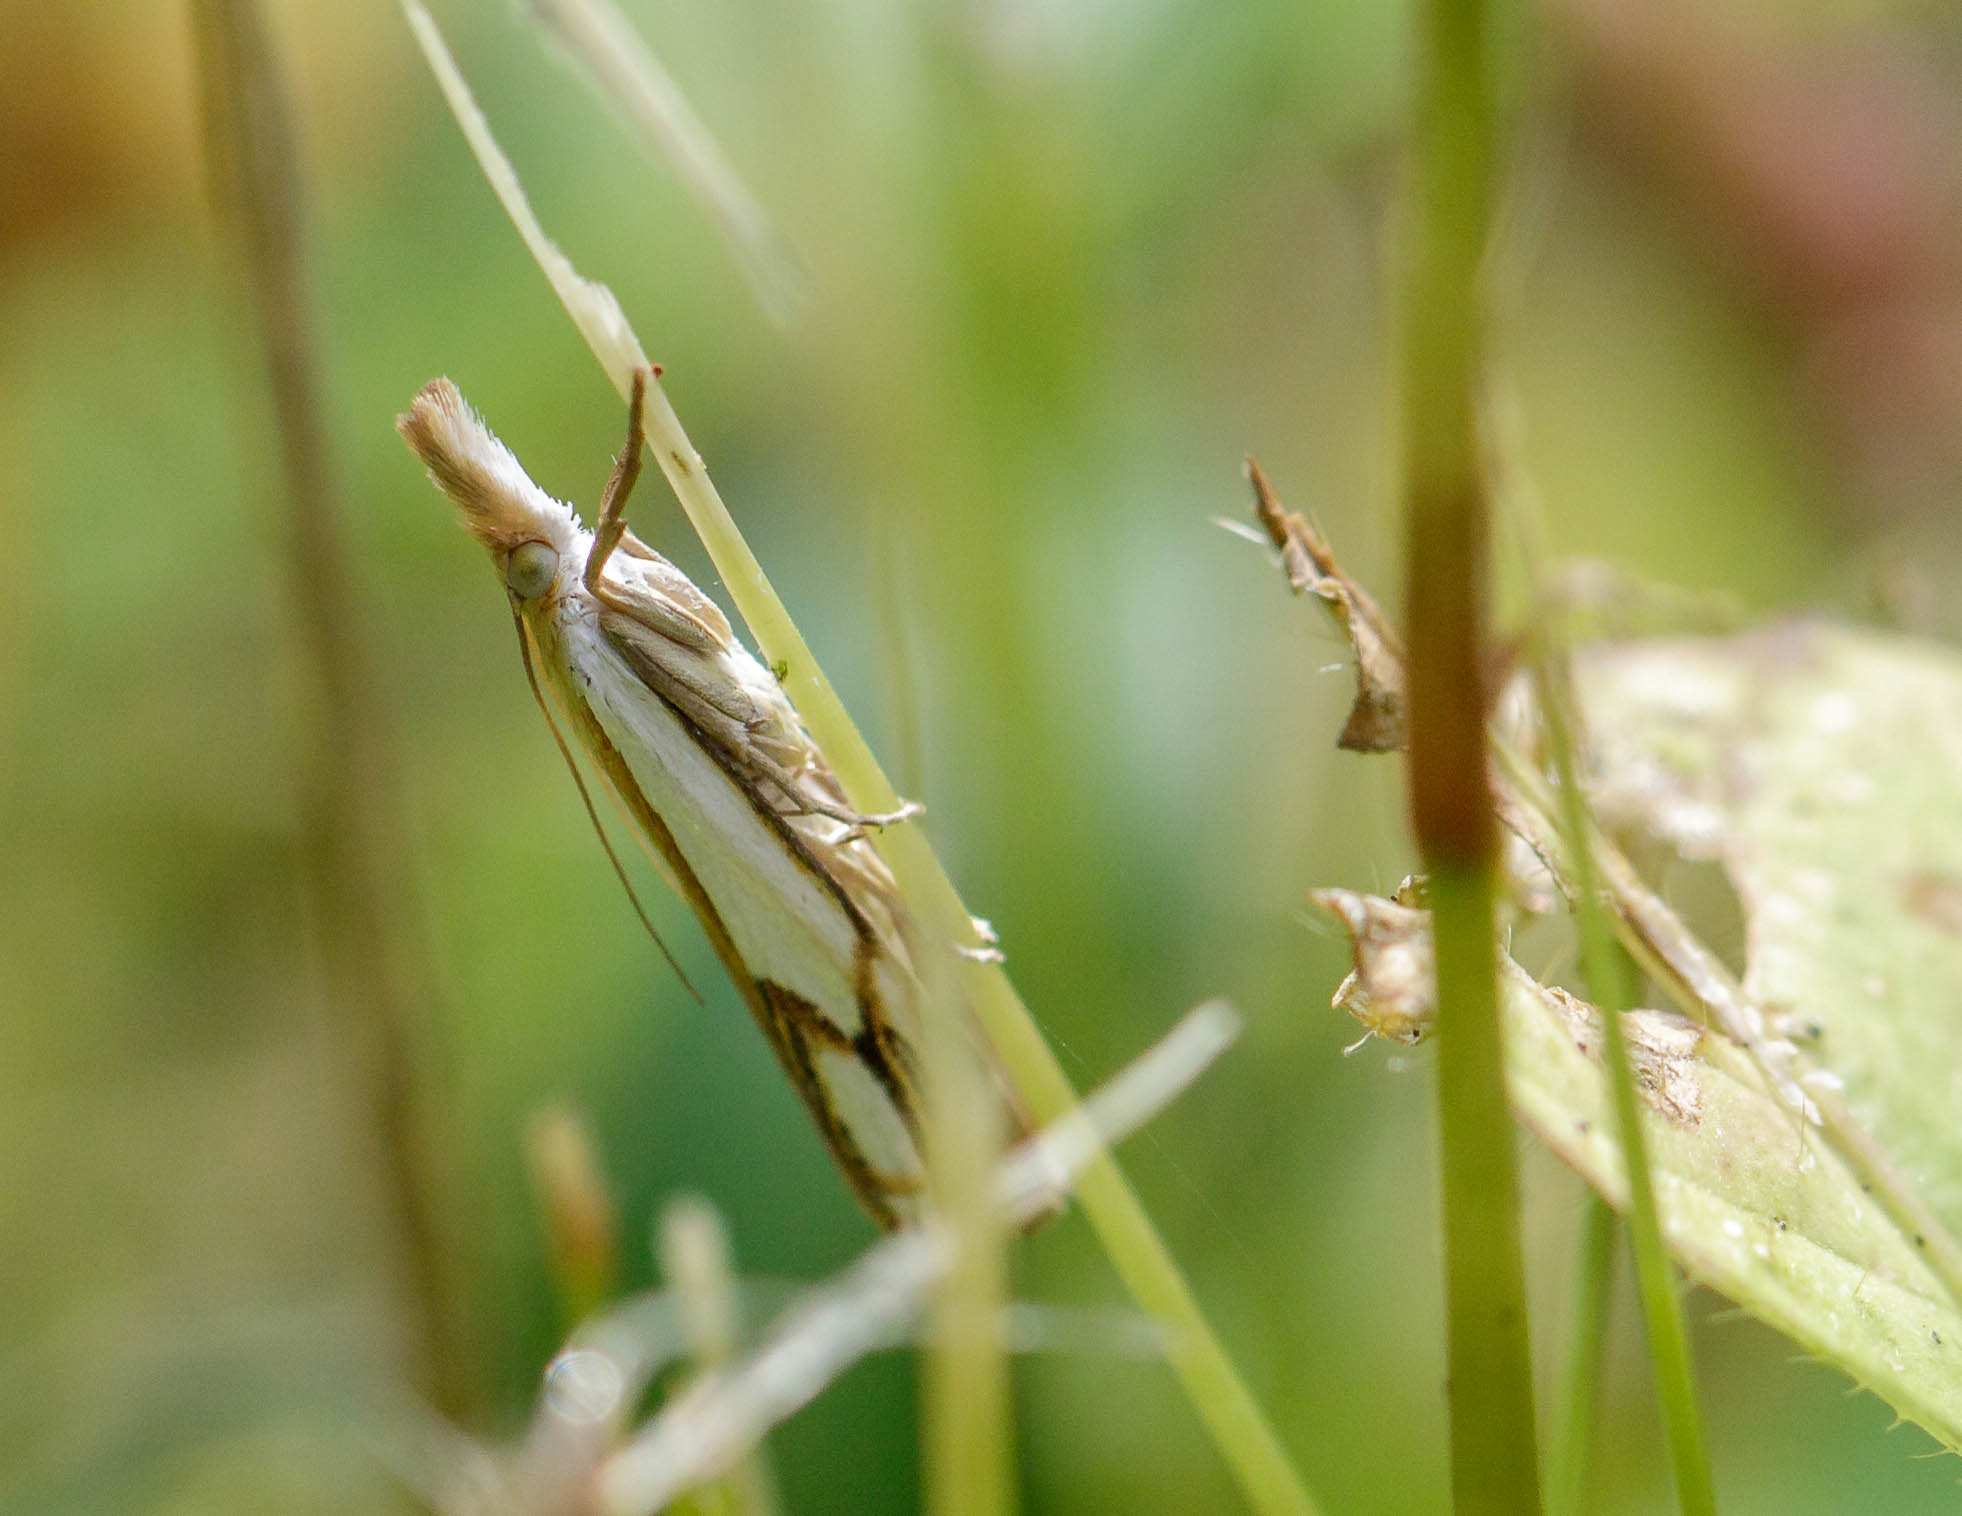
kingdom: Animalia
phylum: Arthropoda
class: Insecta
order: Lepidoptera
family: Crambidae
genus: Crambus
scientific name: Crambus agitatellus
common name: Double-banded grass-veneer
